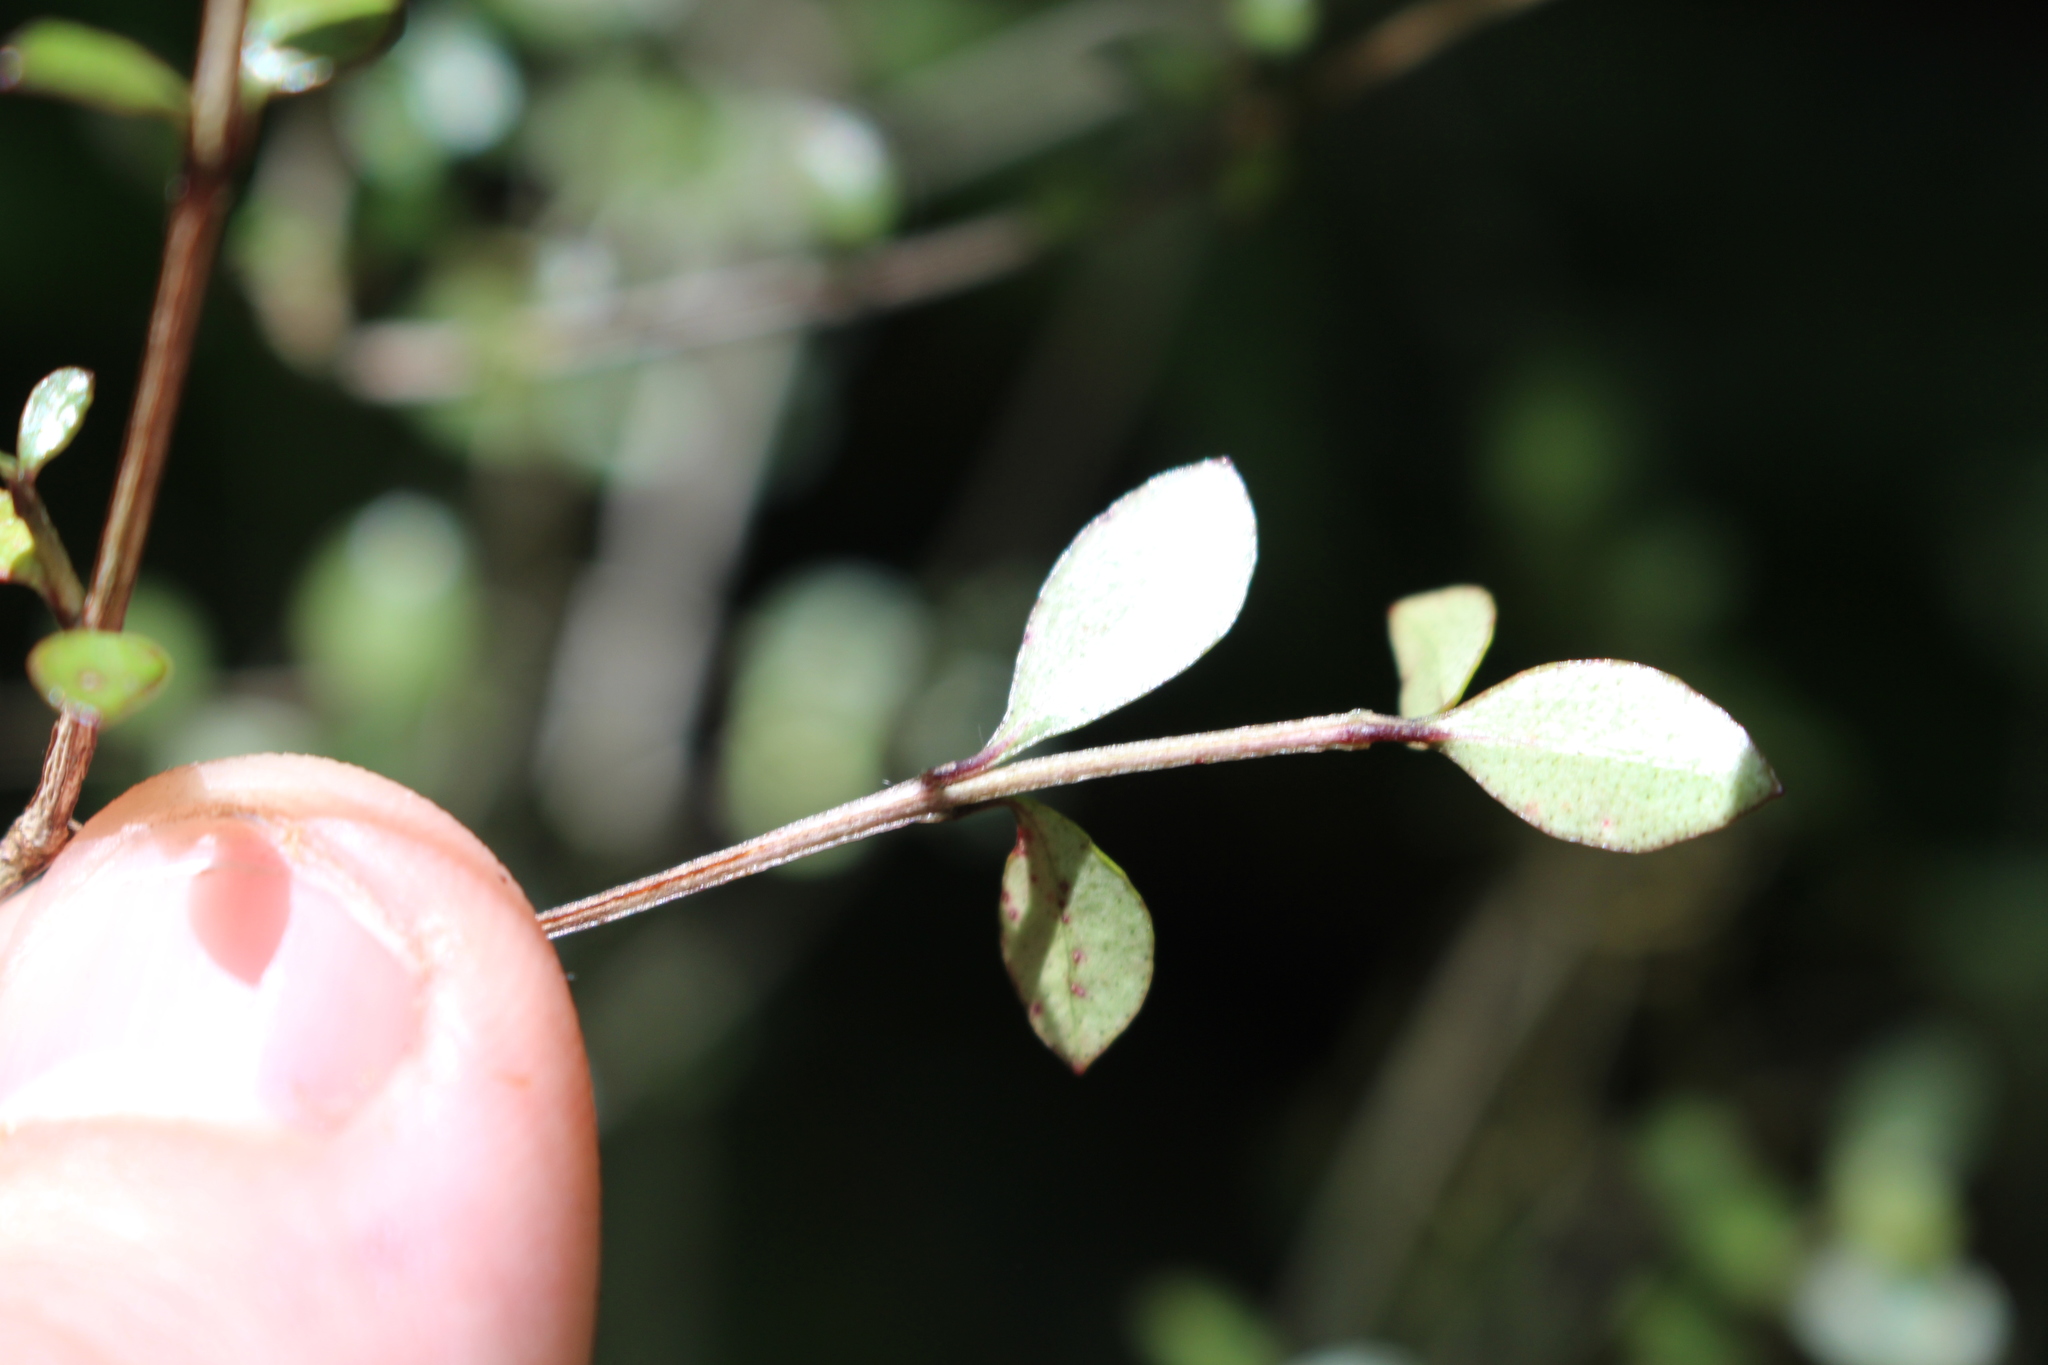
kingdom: Plantae
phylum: Tracheophyta
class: Magnoliopsida
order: Myrtales
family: Myrtaceae
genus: Neomyrtus
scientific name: Neomyrtus pedunculata
